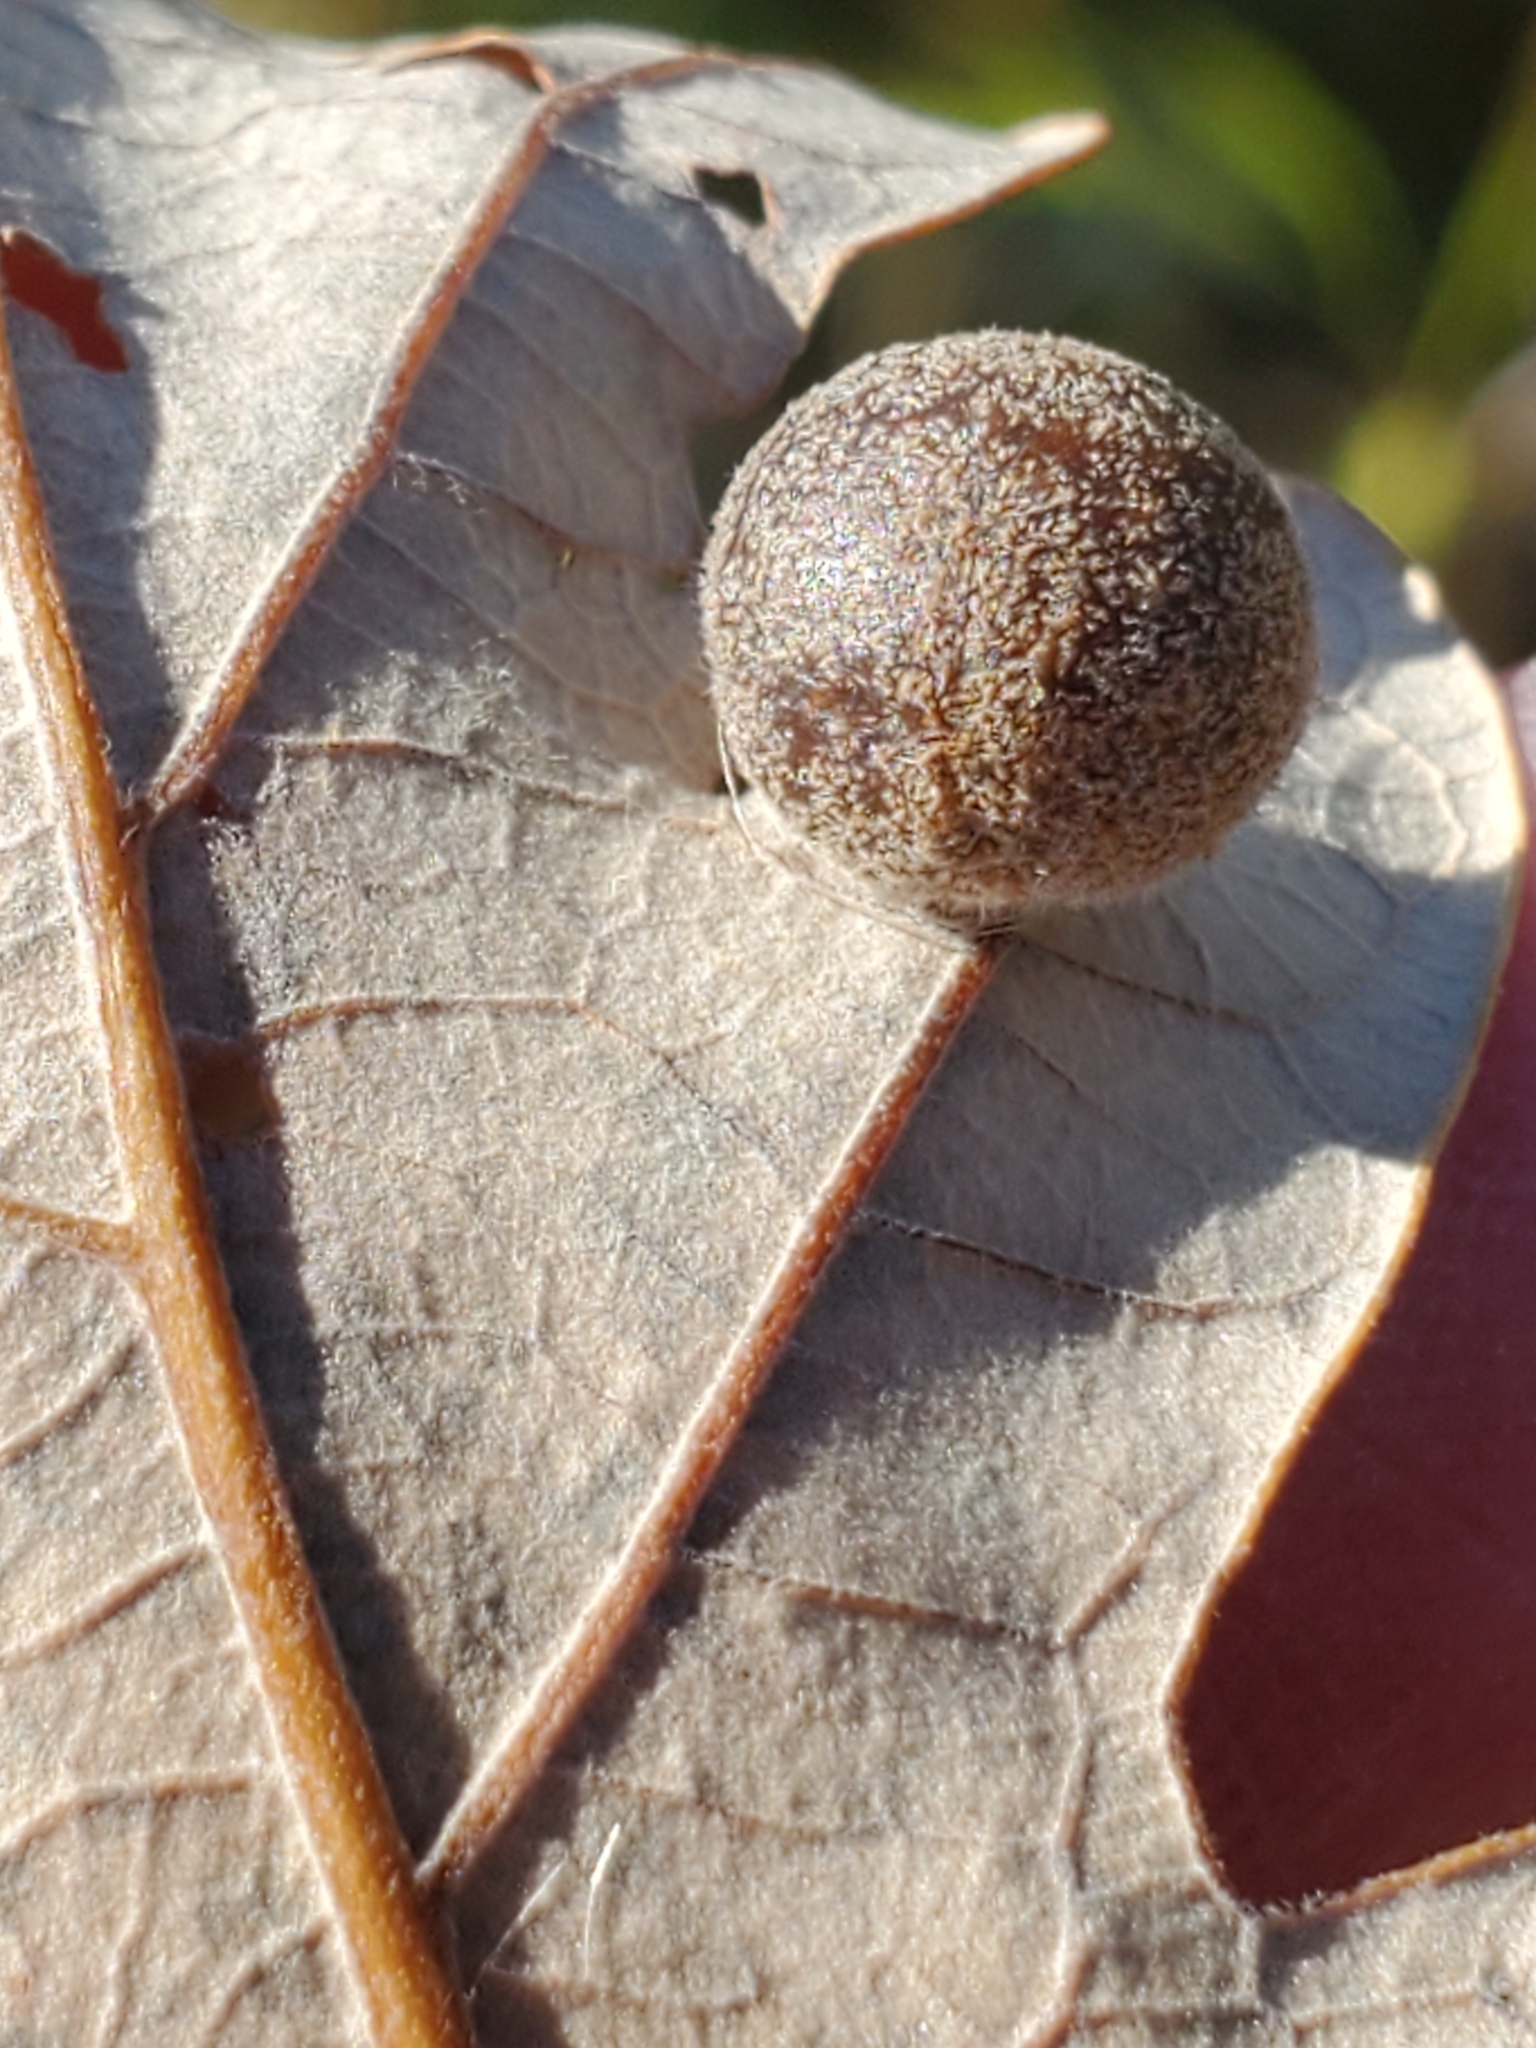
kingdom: Animalia
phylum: Arthropoda
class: Insecta
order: Hymenoptera
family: Cynipidae
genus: Philonix
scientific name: Philonix fulvicollis
